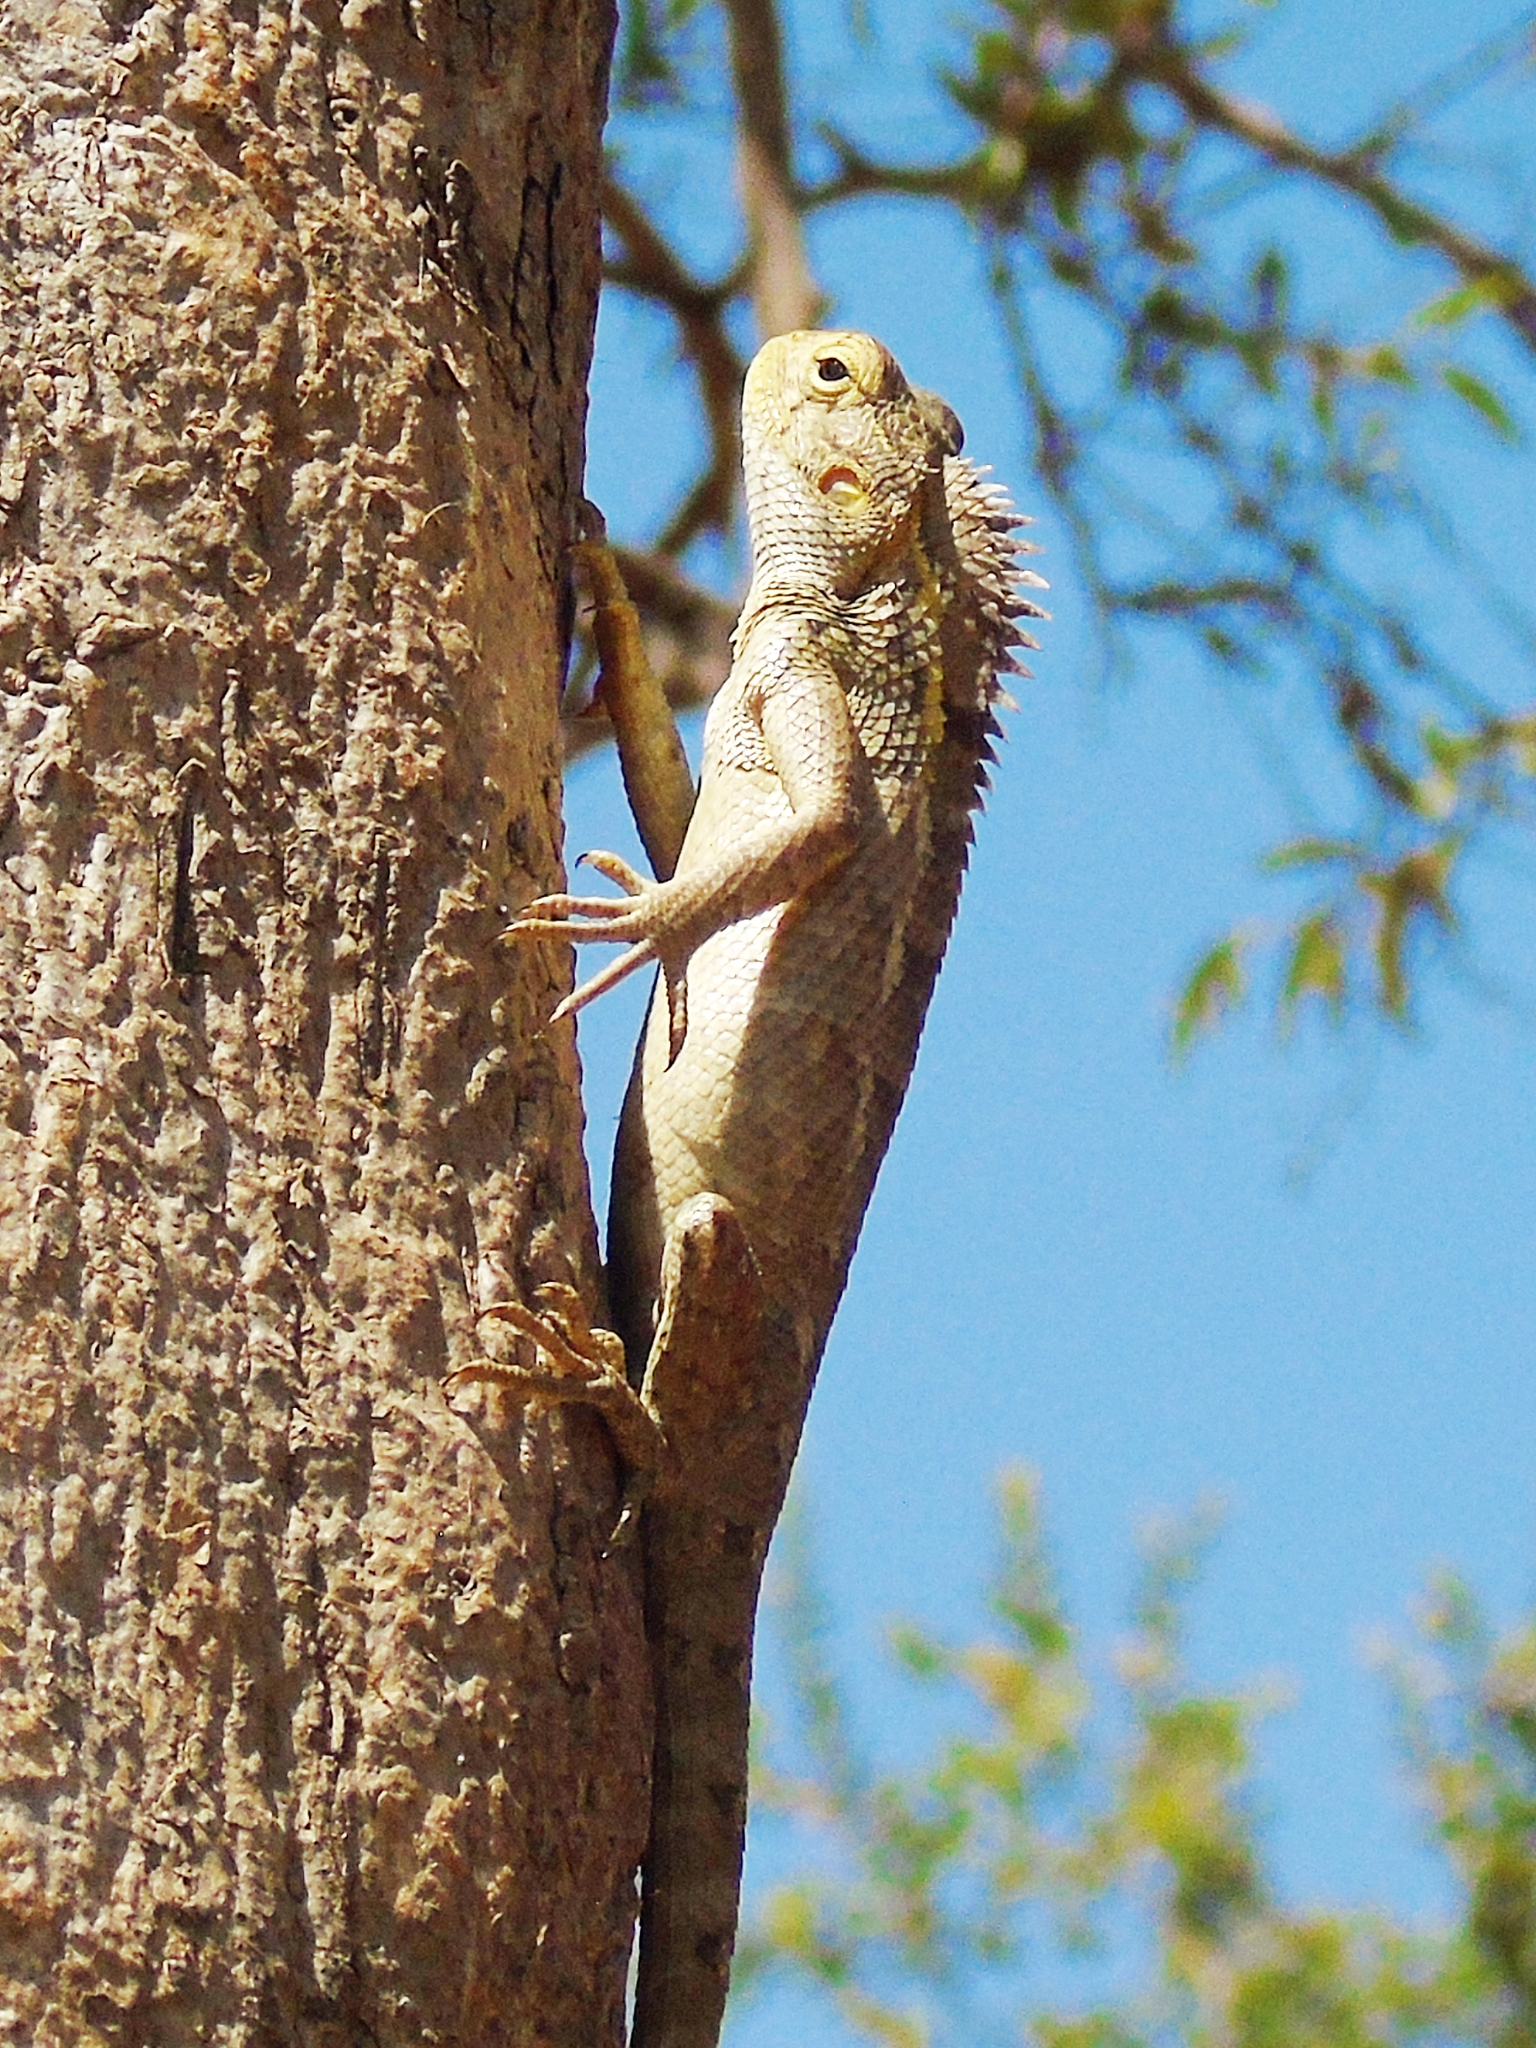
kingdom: Animalia
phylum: Chordata
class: Squamata
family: Agamidae
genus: Calotes
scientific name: Calotes versicolor
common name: Oriental garden lizard
